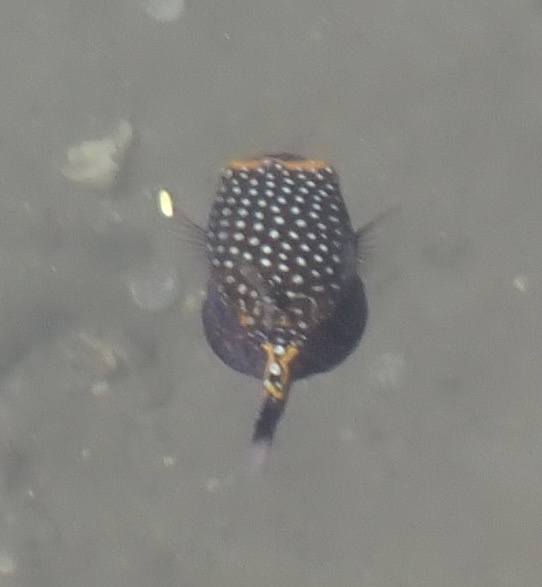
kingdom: Animalia
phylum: Chordata
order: Tetraodontiformes
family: Ostraciidae
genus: Ostracion
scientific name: Ostracion meleagris
